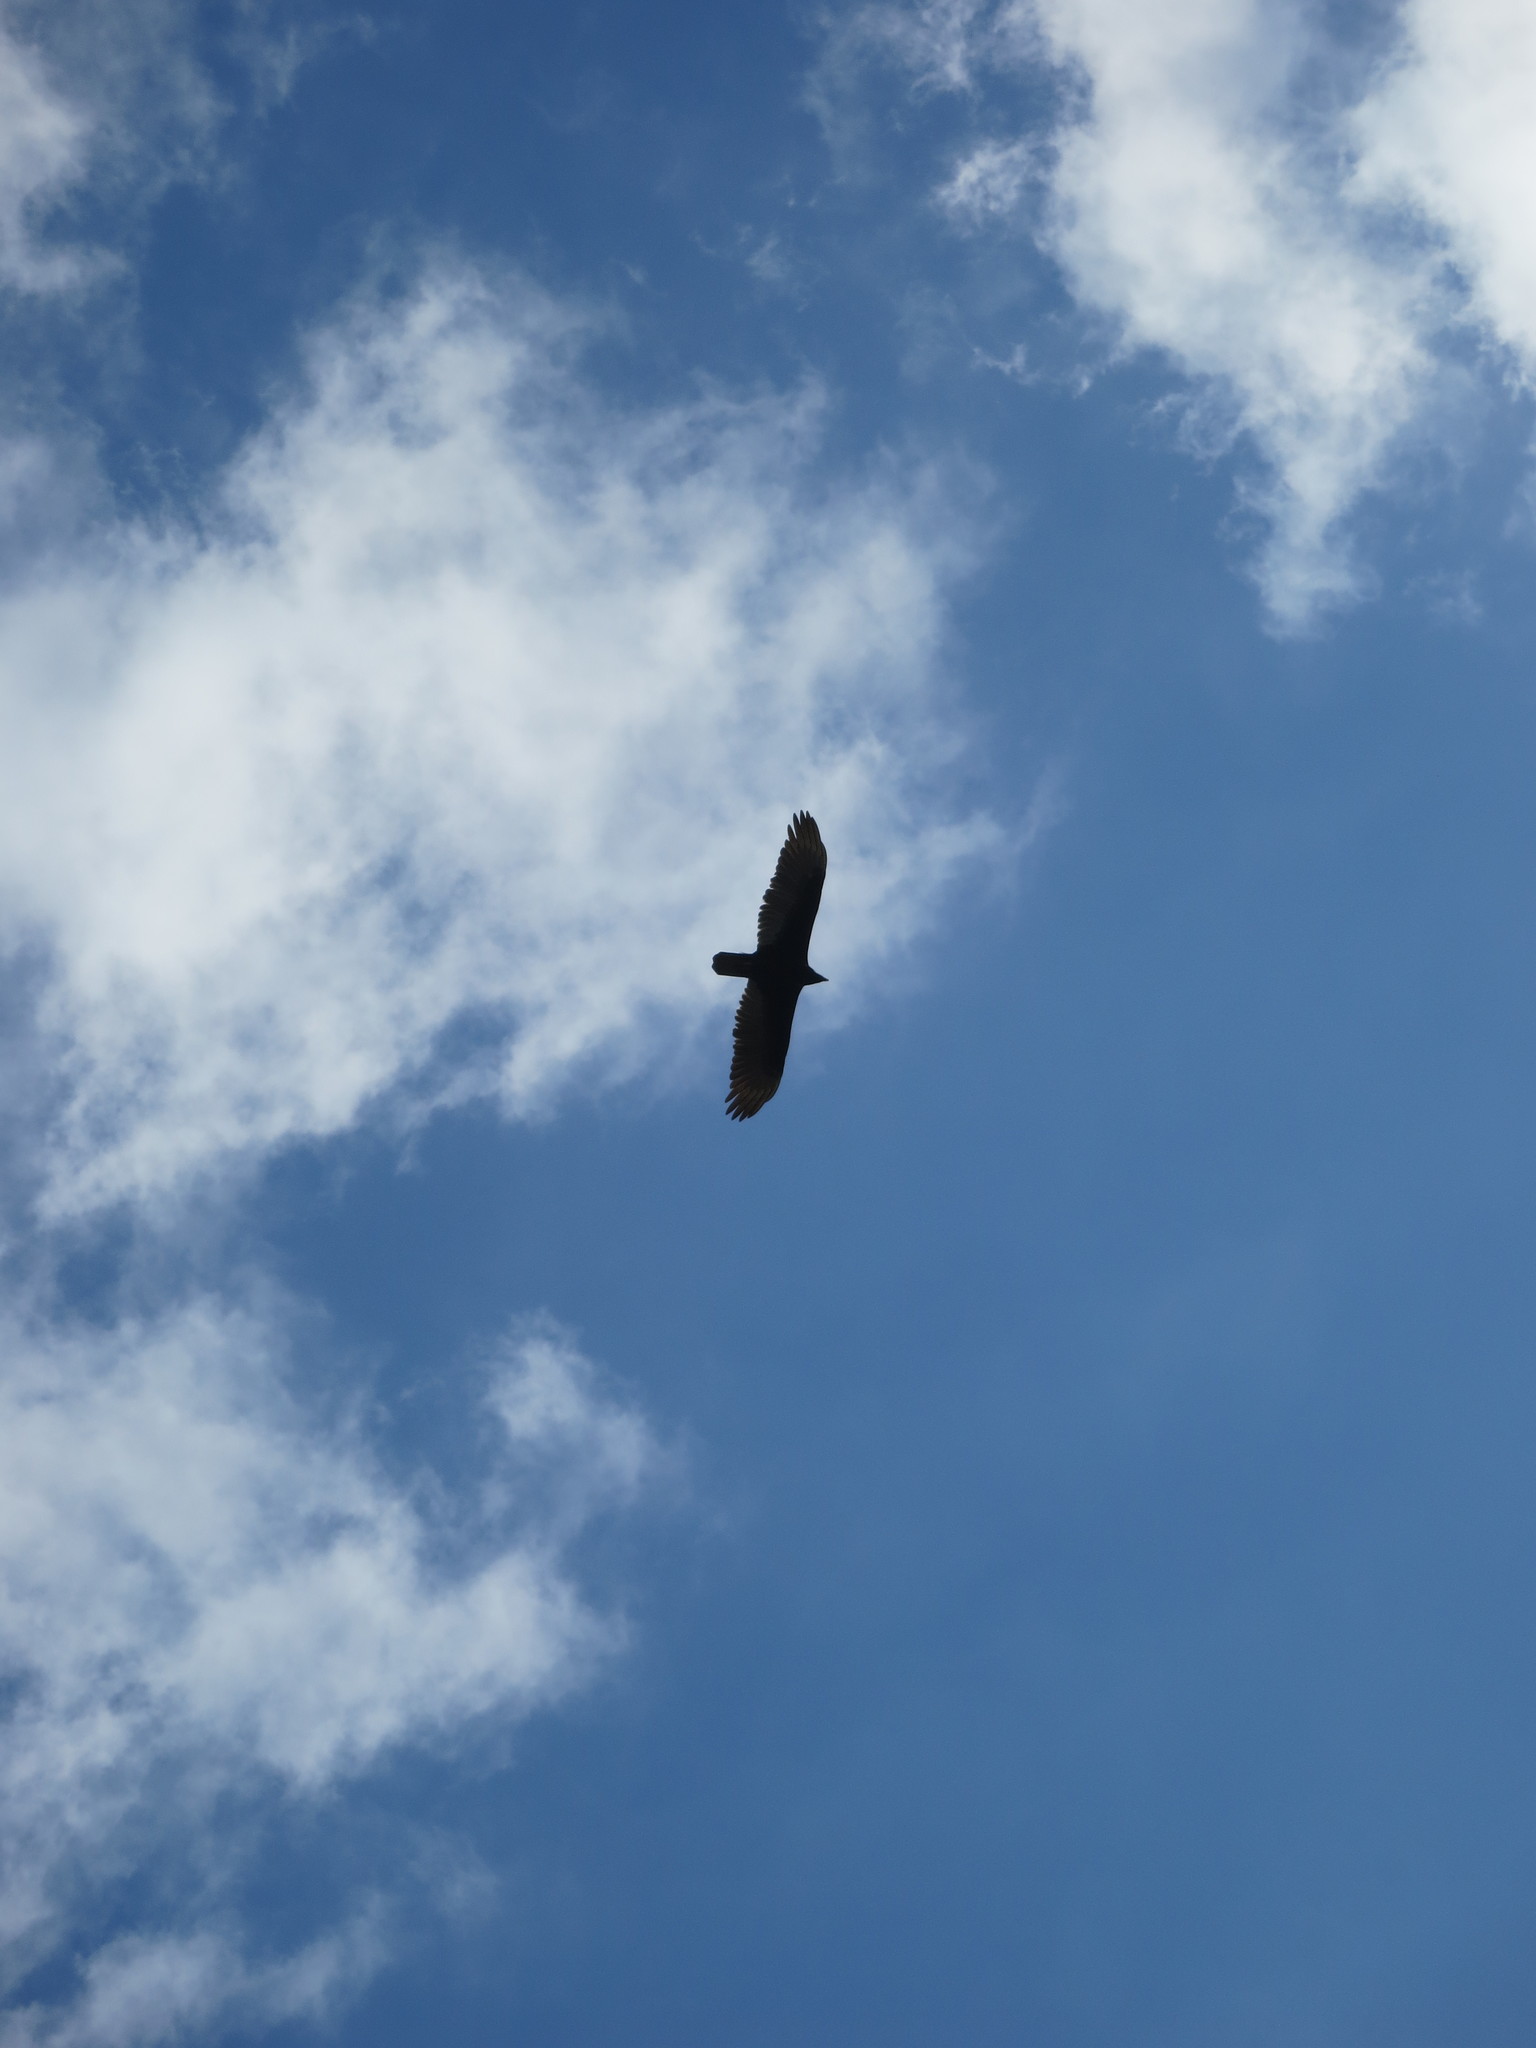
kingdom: Animalia
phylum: Chordata
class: Aves
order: Accipitriformes
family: Cathartidae
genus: Cathartes
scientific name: Cathartes aura
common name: Turkey vulture
